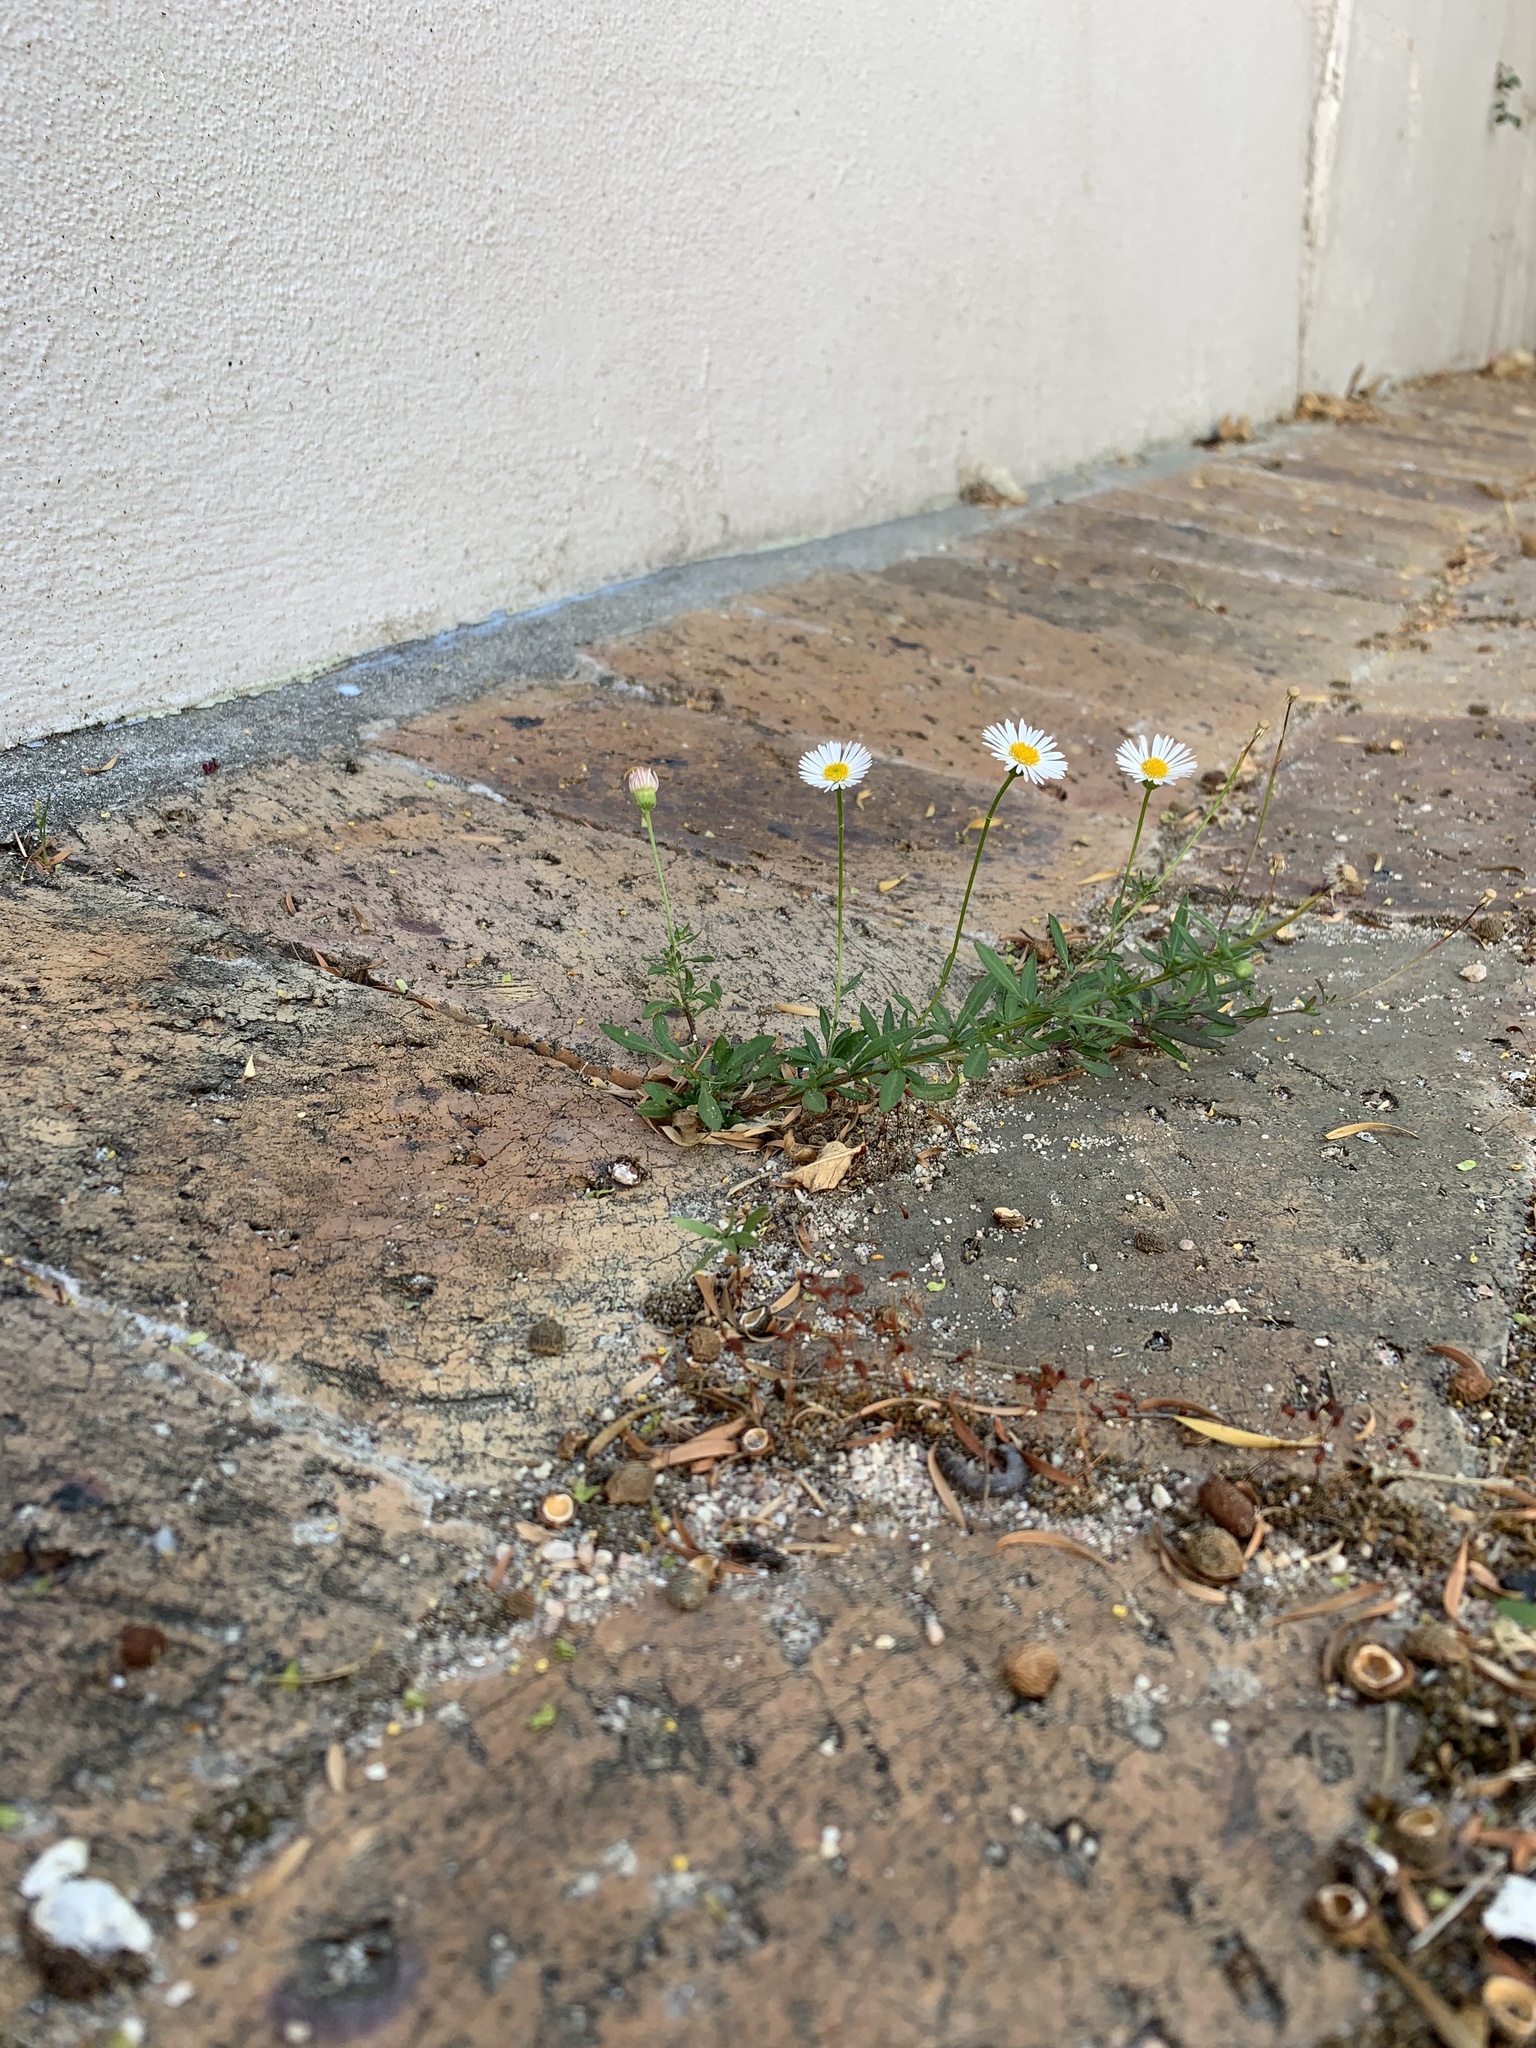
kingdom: Plantae
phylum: Tracheophyta
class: Magnoliopsida
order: Asterales
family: Asteraceae
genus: Erigeron
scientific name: Erigeron karvinskianus
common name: Mexican fleabane
